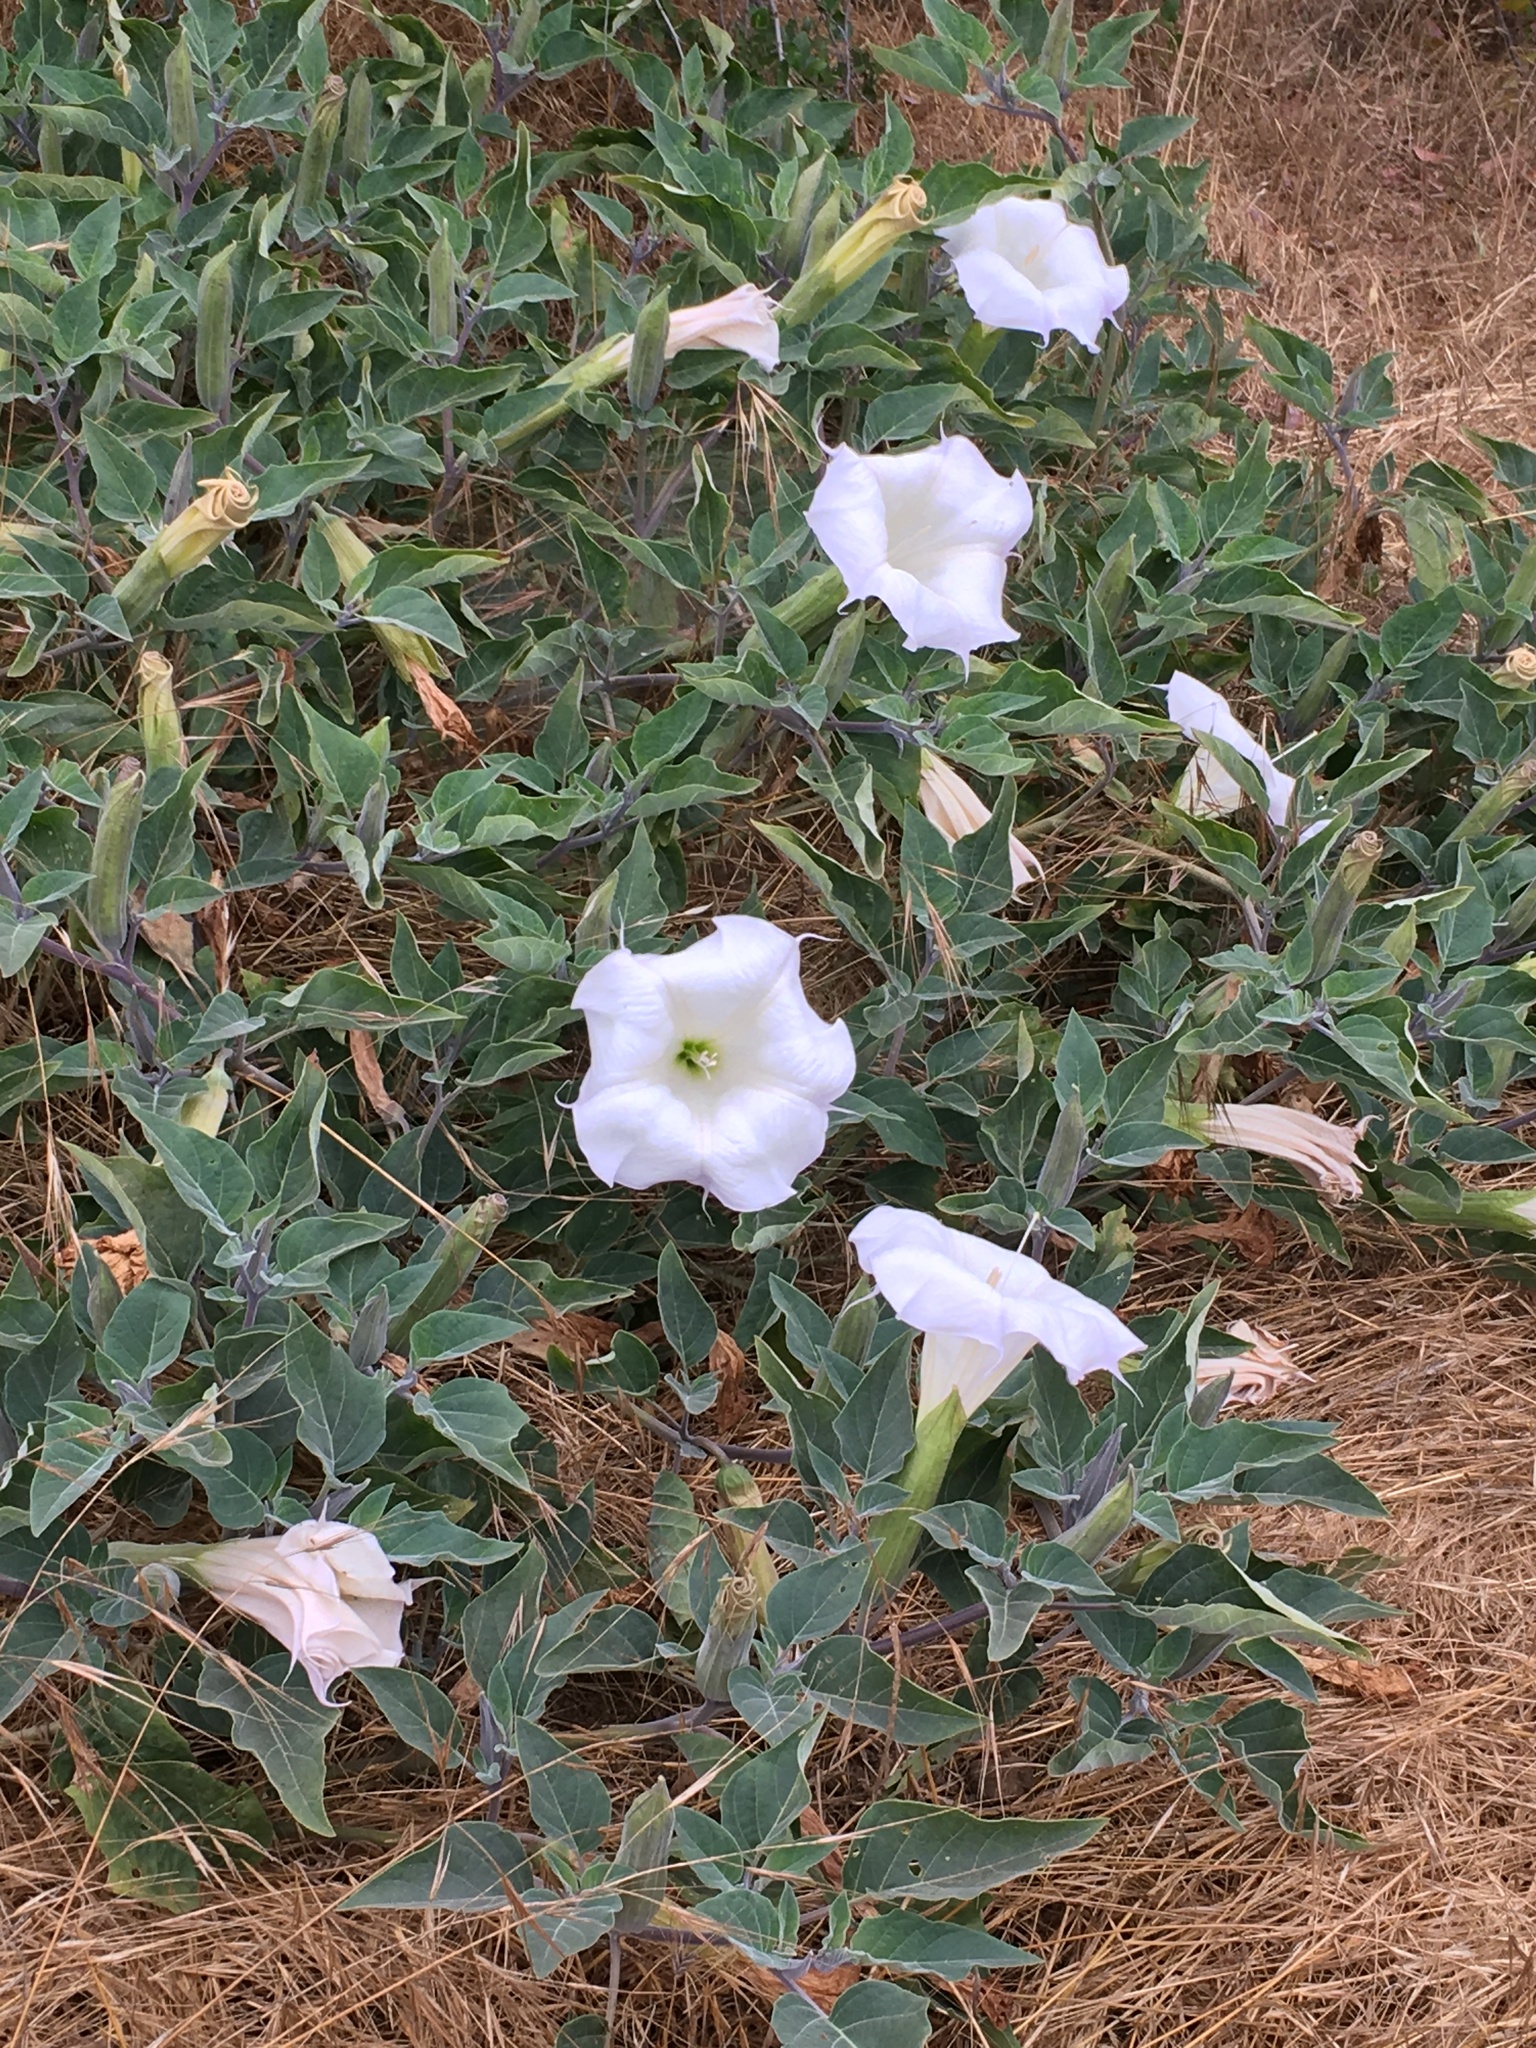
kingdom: Plantae
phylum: Tracheophyta
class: Magnoliopsida
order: Solanales
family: Solanaceae
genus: Datura
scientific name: Datura wrightii
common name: Sacred thorn-apple
